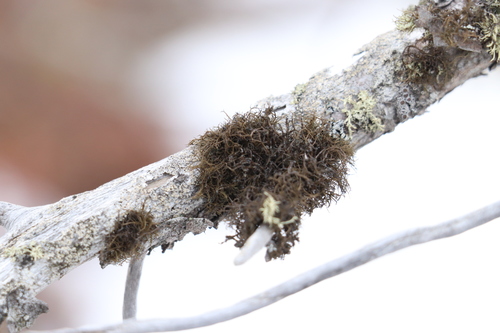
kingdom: Fungi
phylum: Ascomycota
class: Lecanoromycetes
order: Lecanorales
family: Parmeliaceae
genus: Bryoria
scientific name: Bryoria
